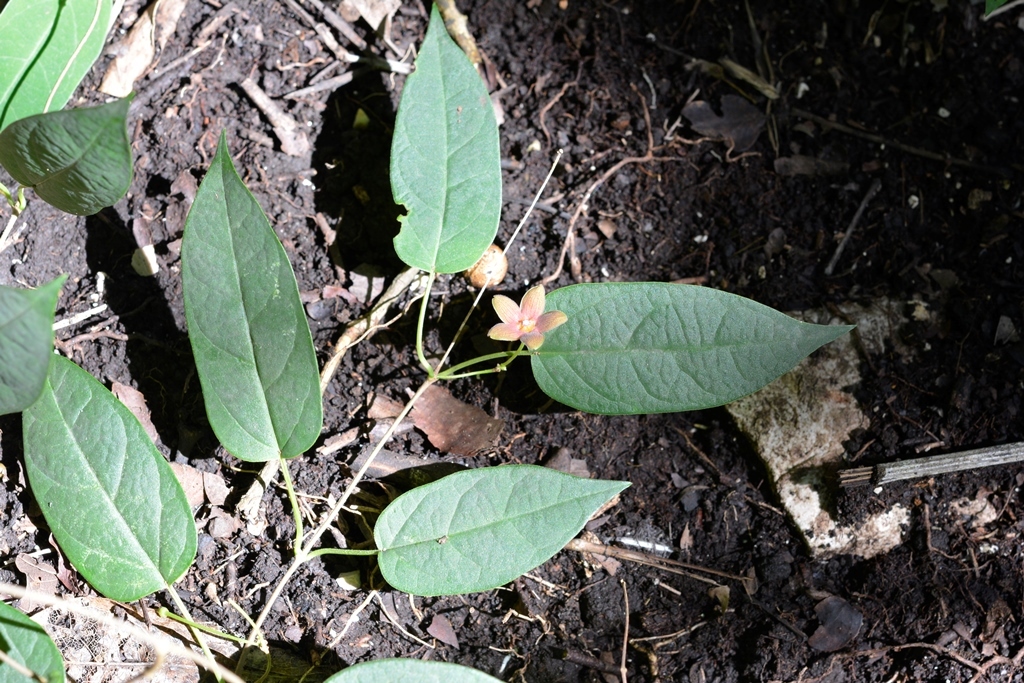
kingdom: Plantae
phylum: Tracheophyta
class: Magnoliopsida
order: Gentianales
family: Apocynaceae
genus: Ruehssia
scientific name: Ruehssia sumiderensis
